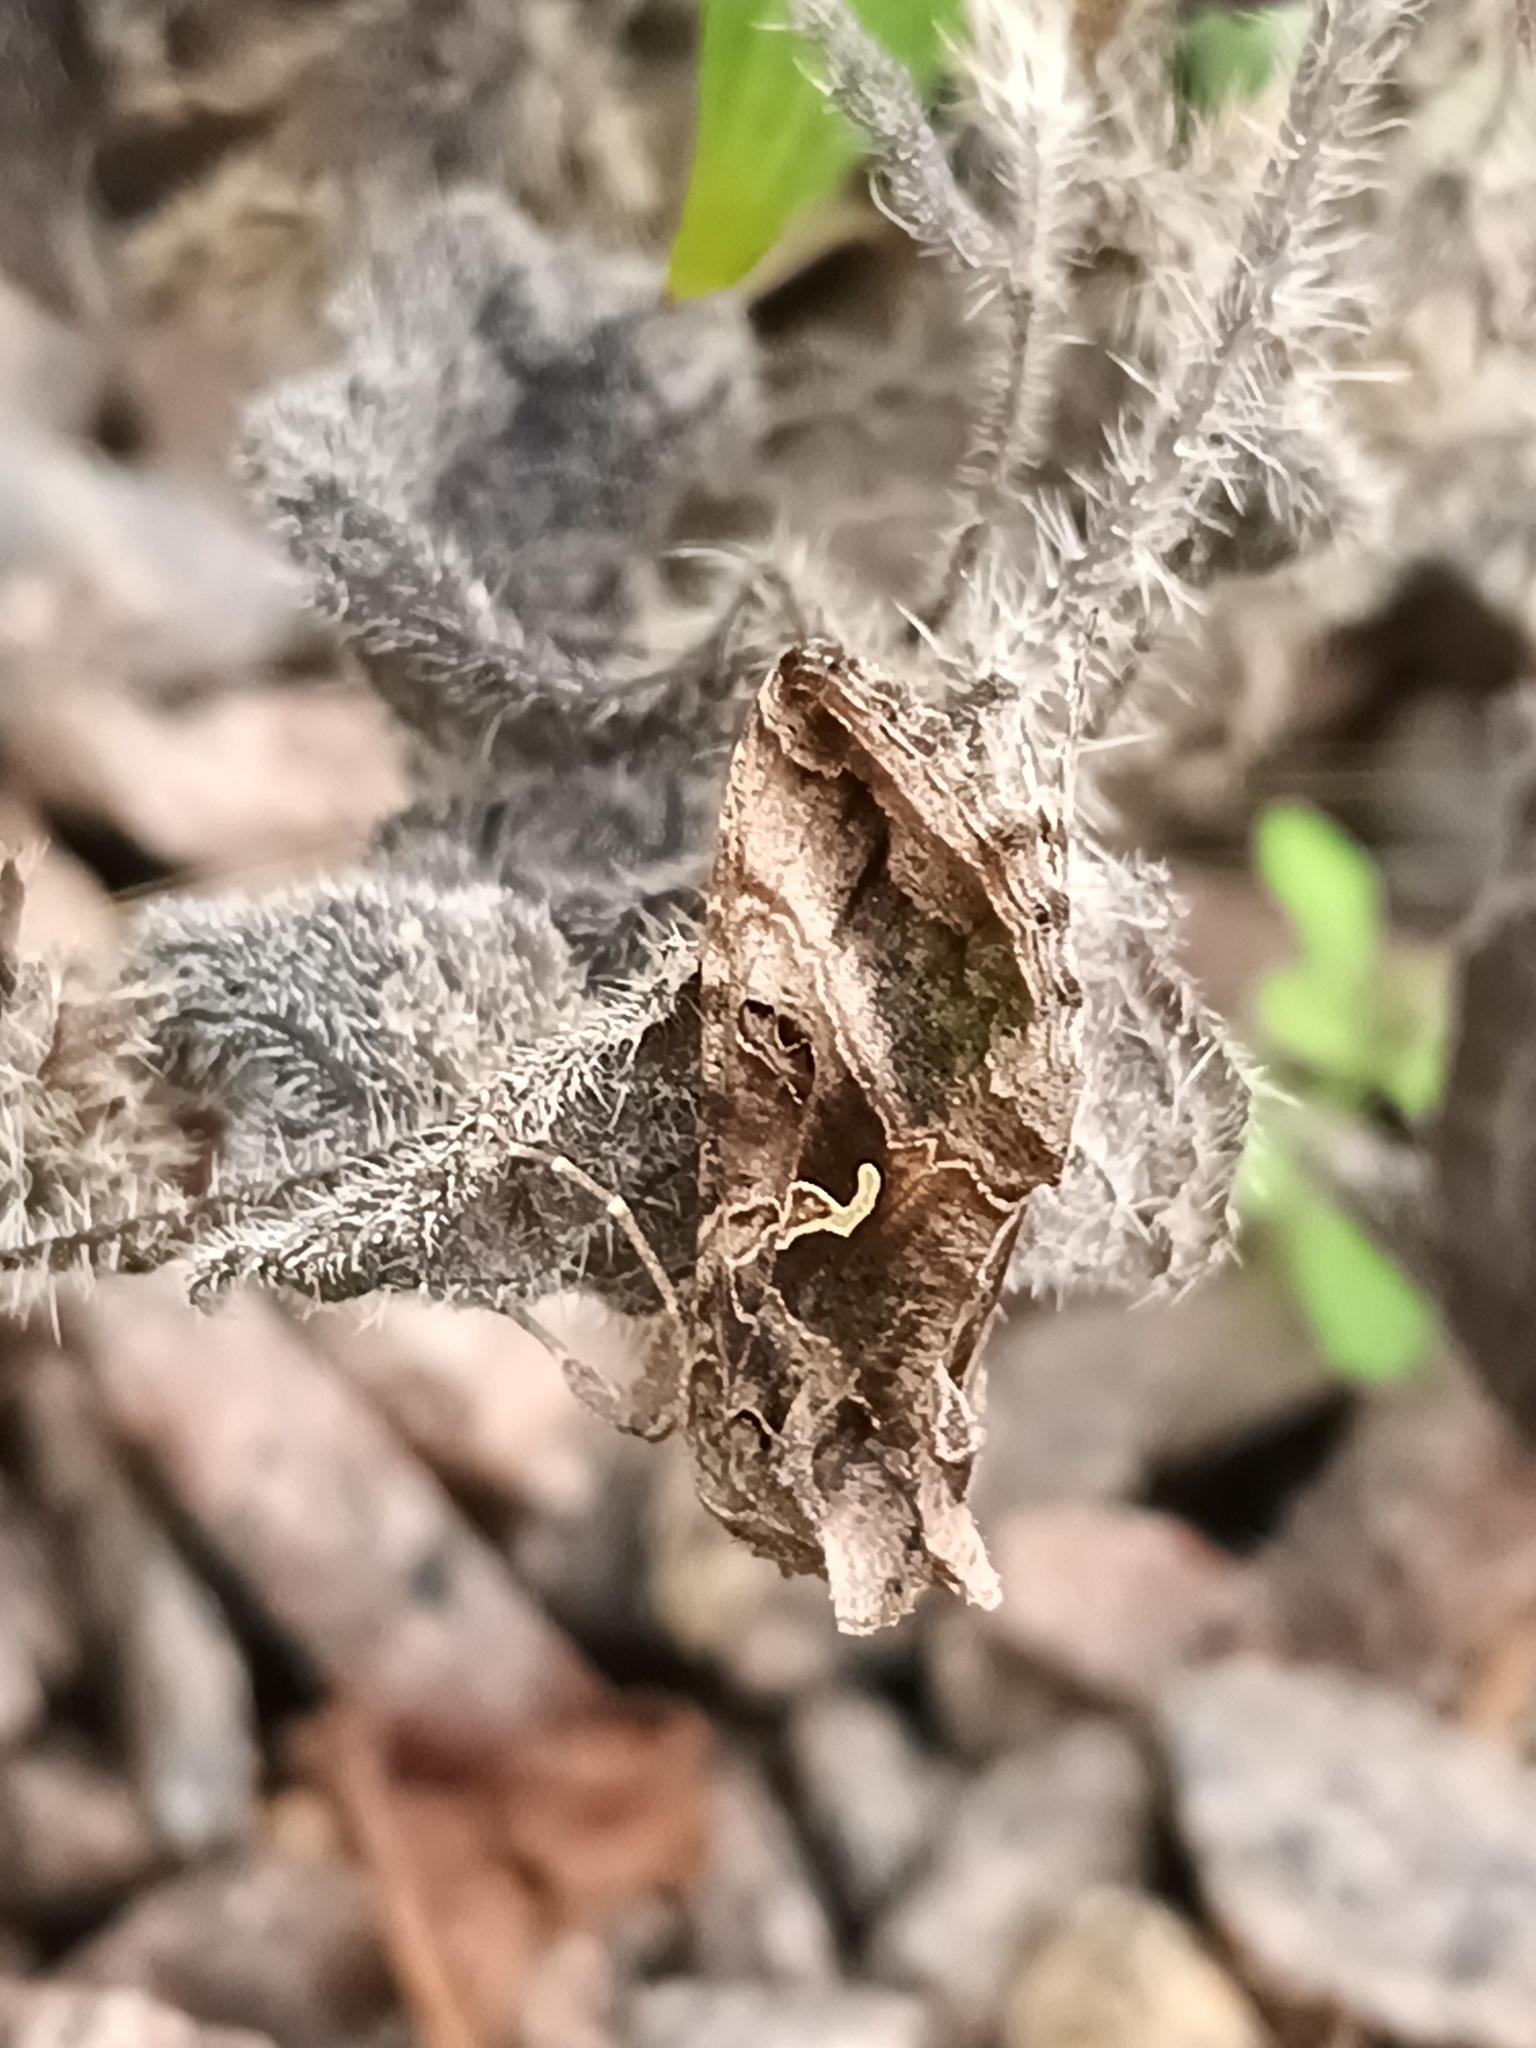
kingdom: Animalia
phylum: Arthropoda
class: Insecta
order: Lepidoptera
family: Noctuidae
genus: Autographa
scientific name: Autographa gamma
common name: Silver y
